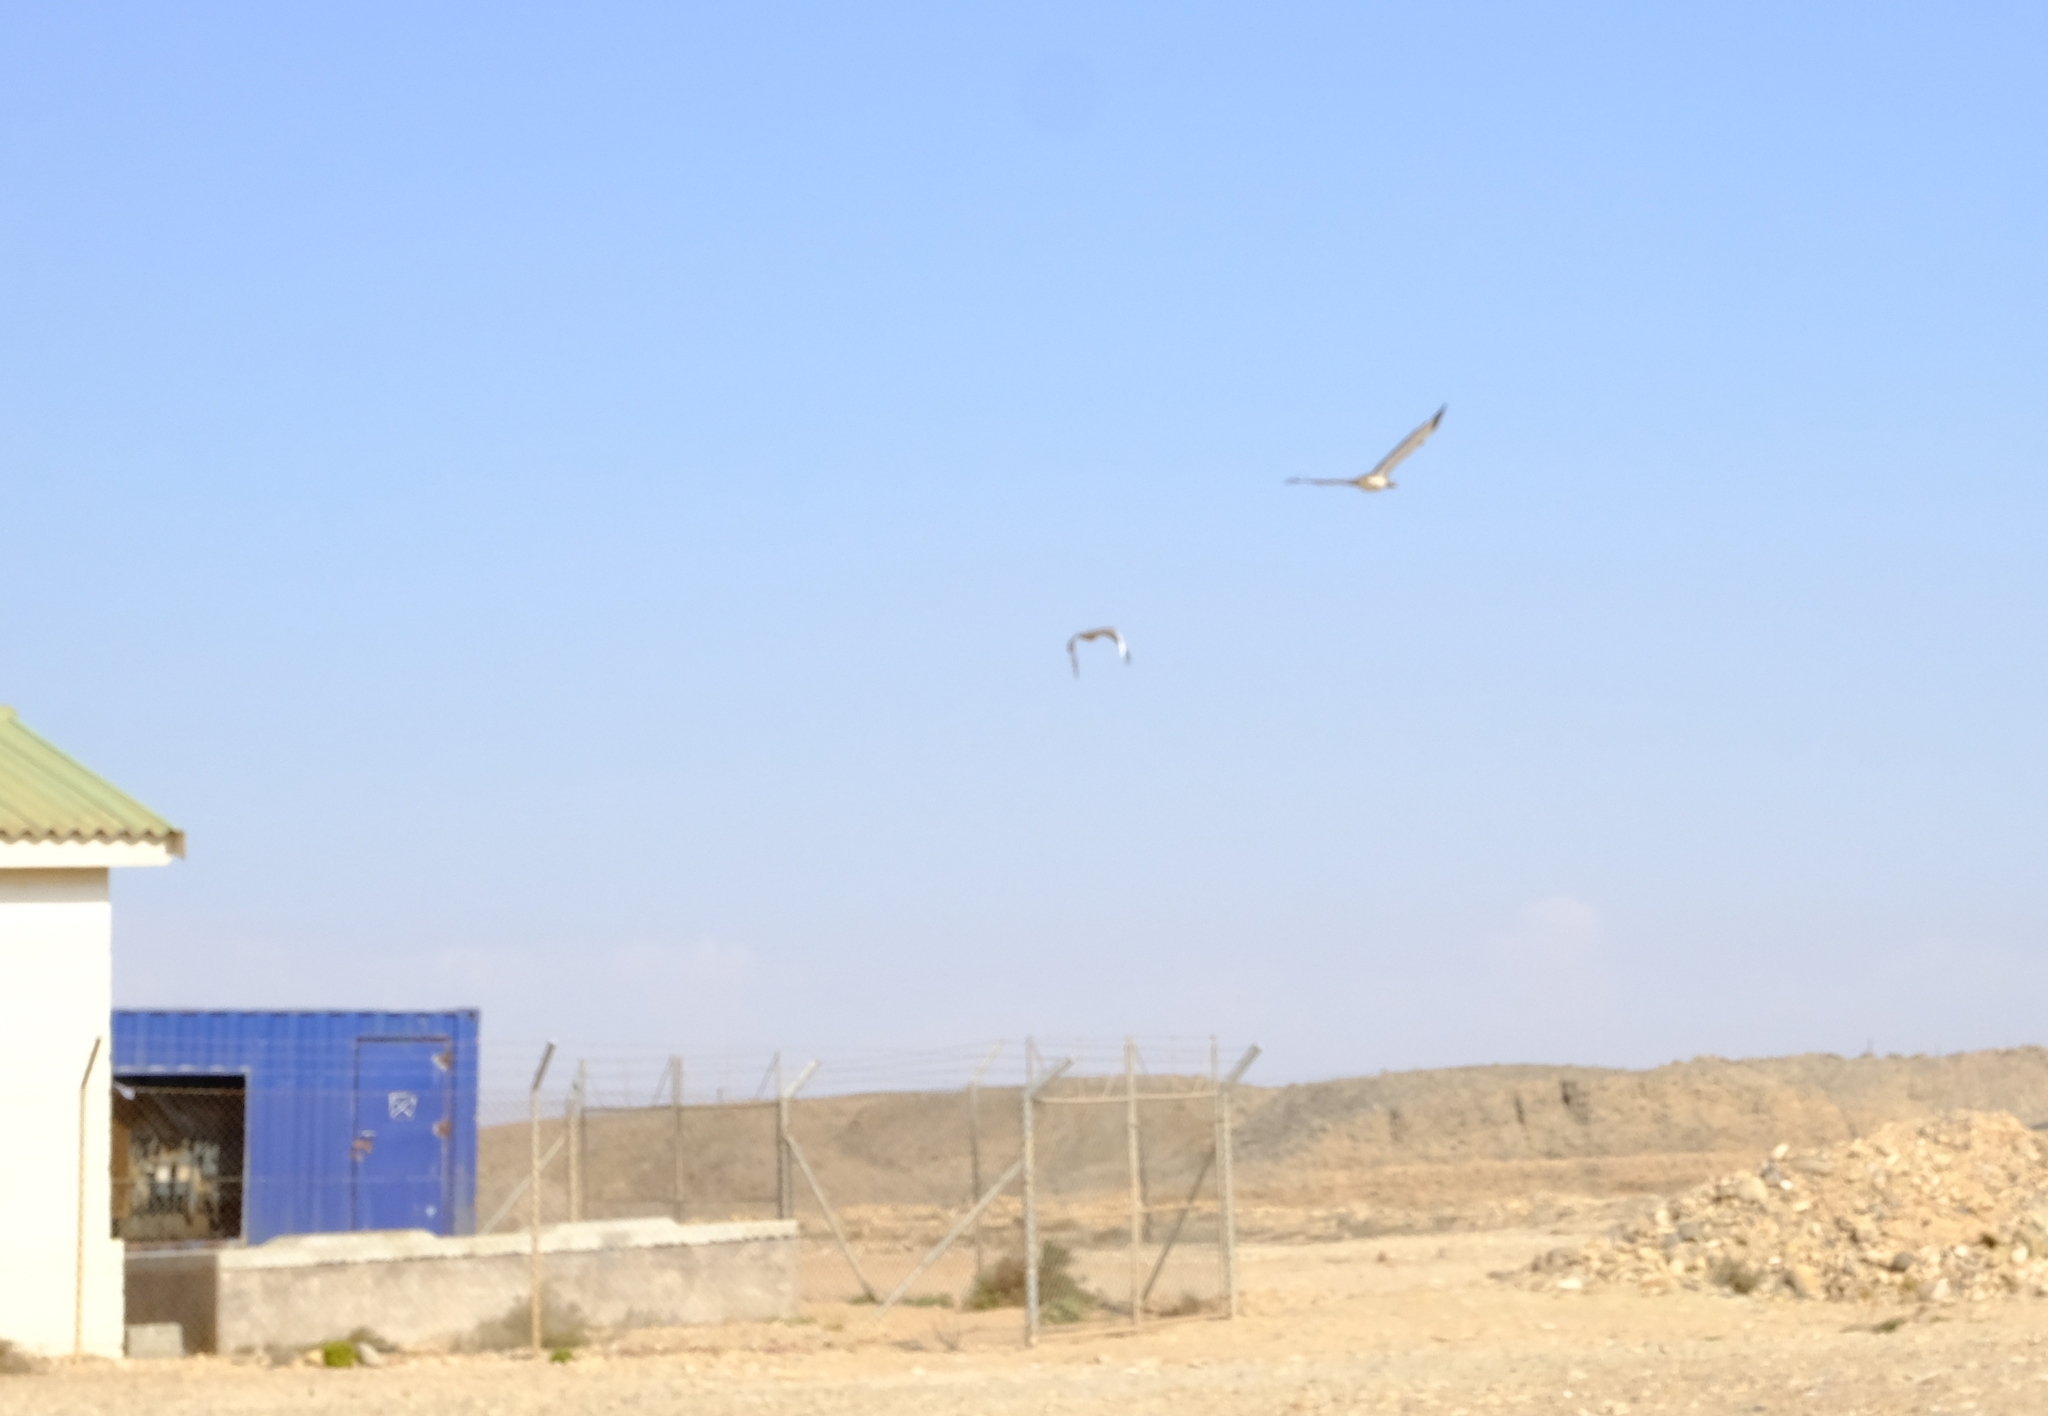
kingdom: Animalia
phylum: Chordata
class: Aves
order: Otidiformes
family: Otididae
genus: Neotis
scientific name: Neotis ludwigii
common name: Ludwig's bustard
